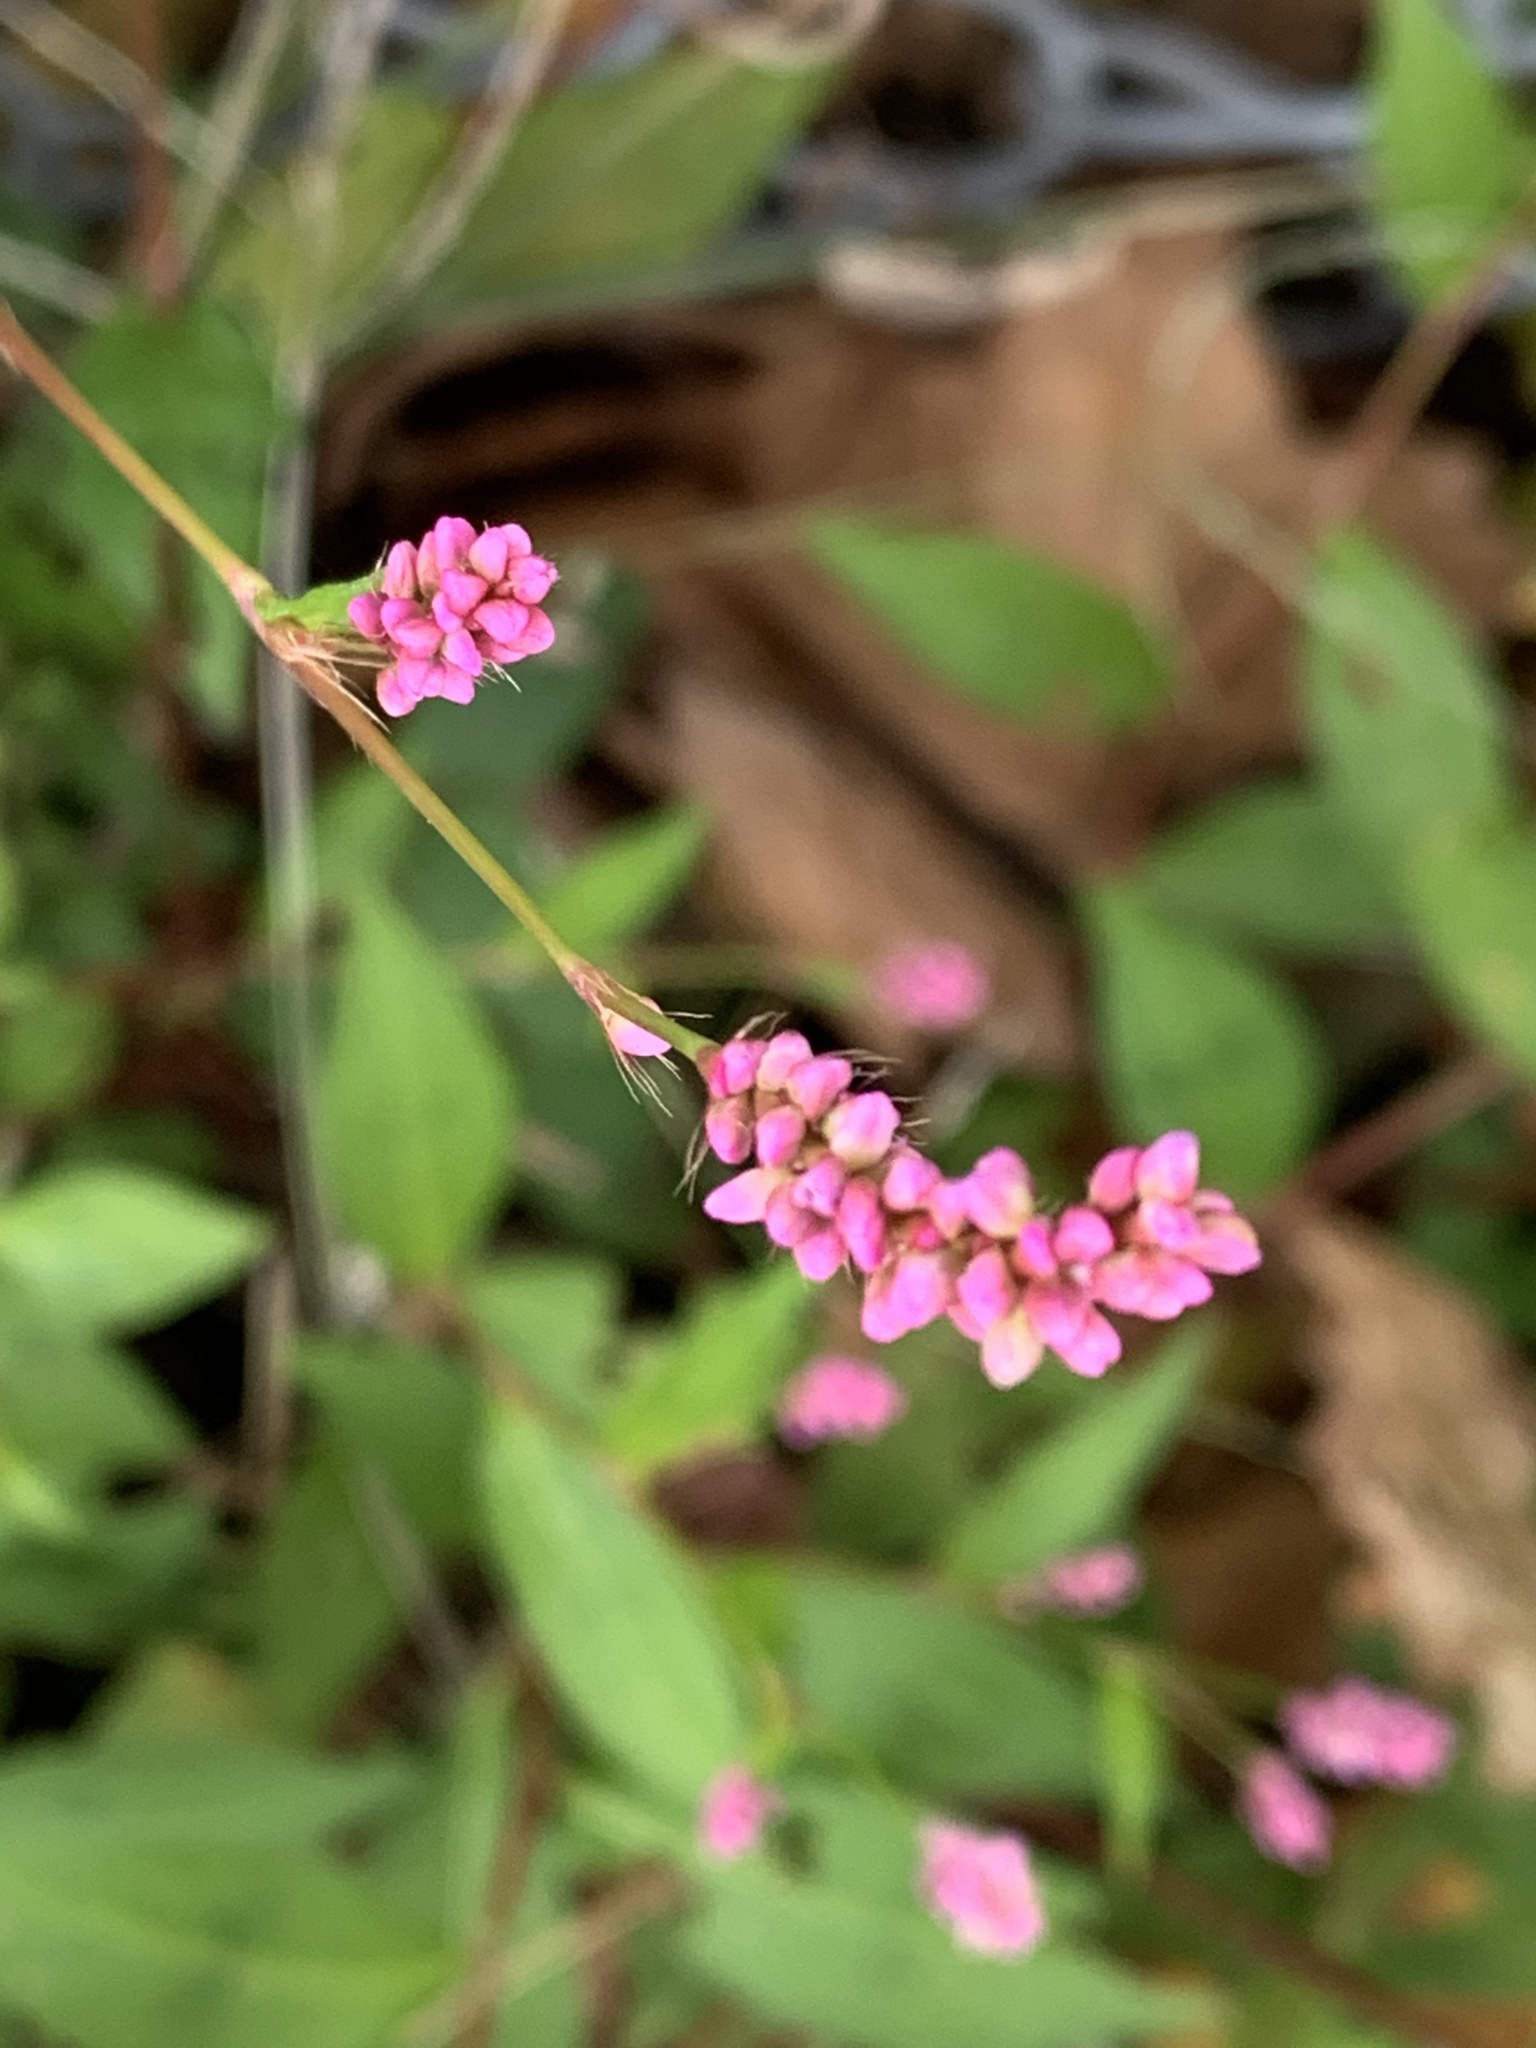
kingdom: Plantae
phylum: Tracheophyta
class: Magnoliopsida
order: Caryophyllales
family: Polygonaceae
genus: Persicaria
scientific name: Persicaria longiseta
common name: Bristly lady's-thumb
